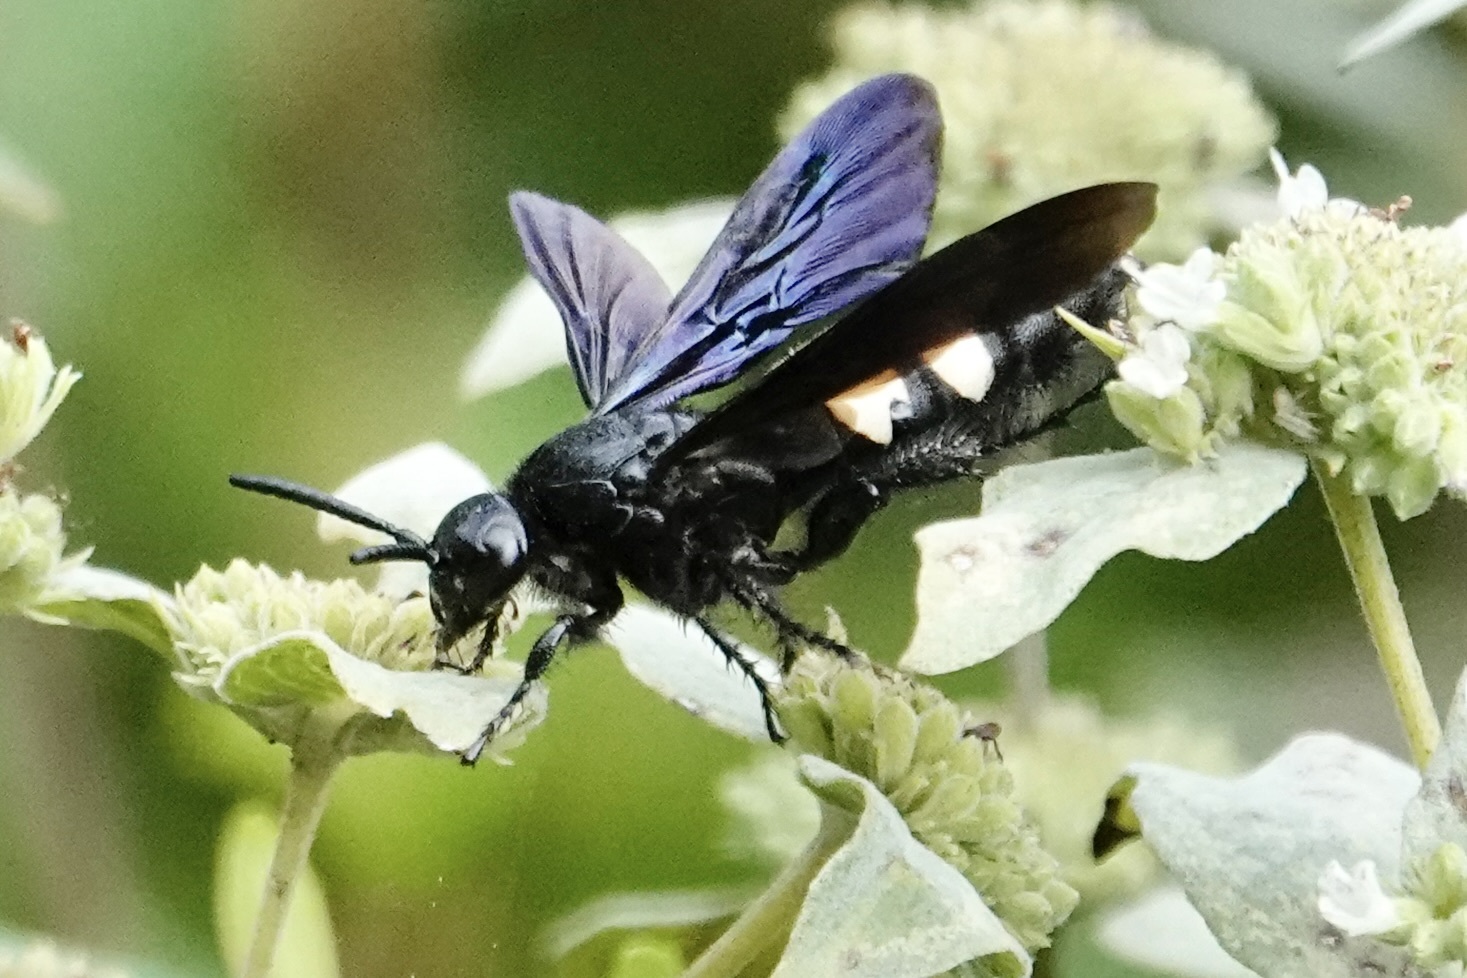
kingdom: Animalia
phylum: Arthropoda
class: Insecta
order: Hymenoptera
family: Scoliidae
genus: Scolia
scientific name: Scolia bicincta
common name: Double-banded scoliid wasp
